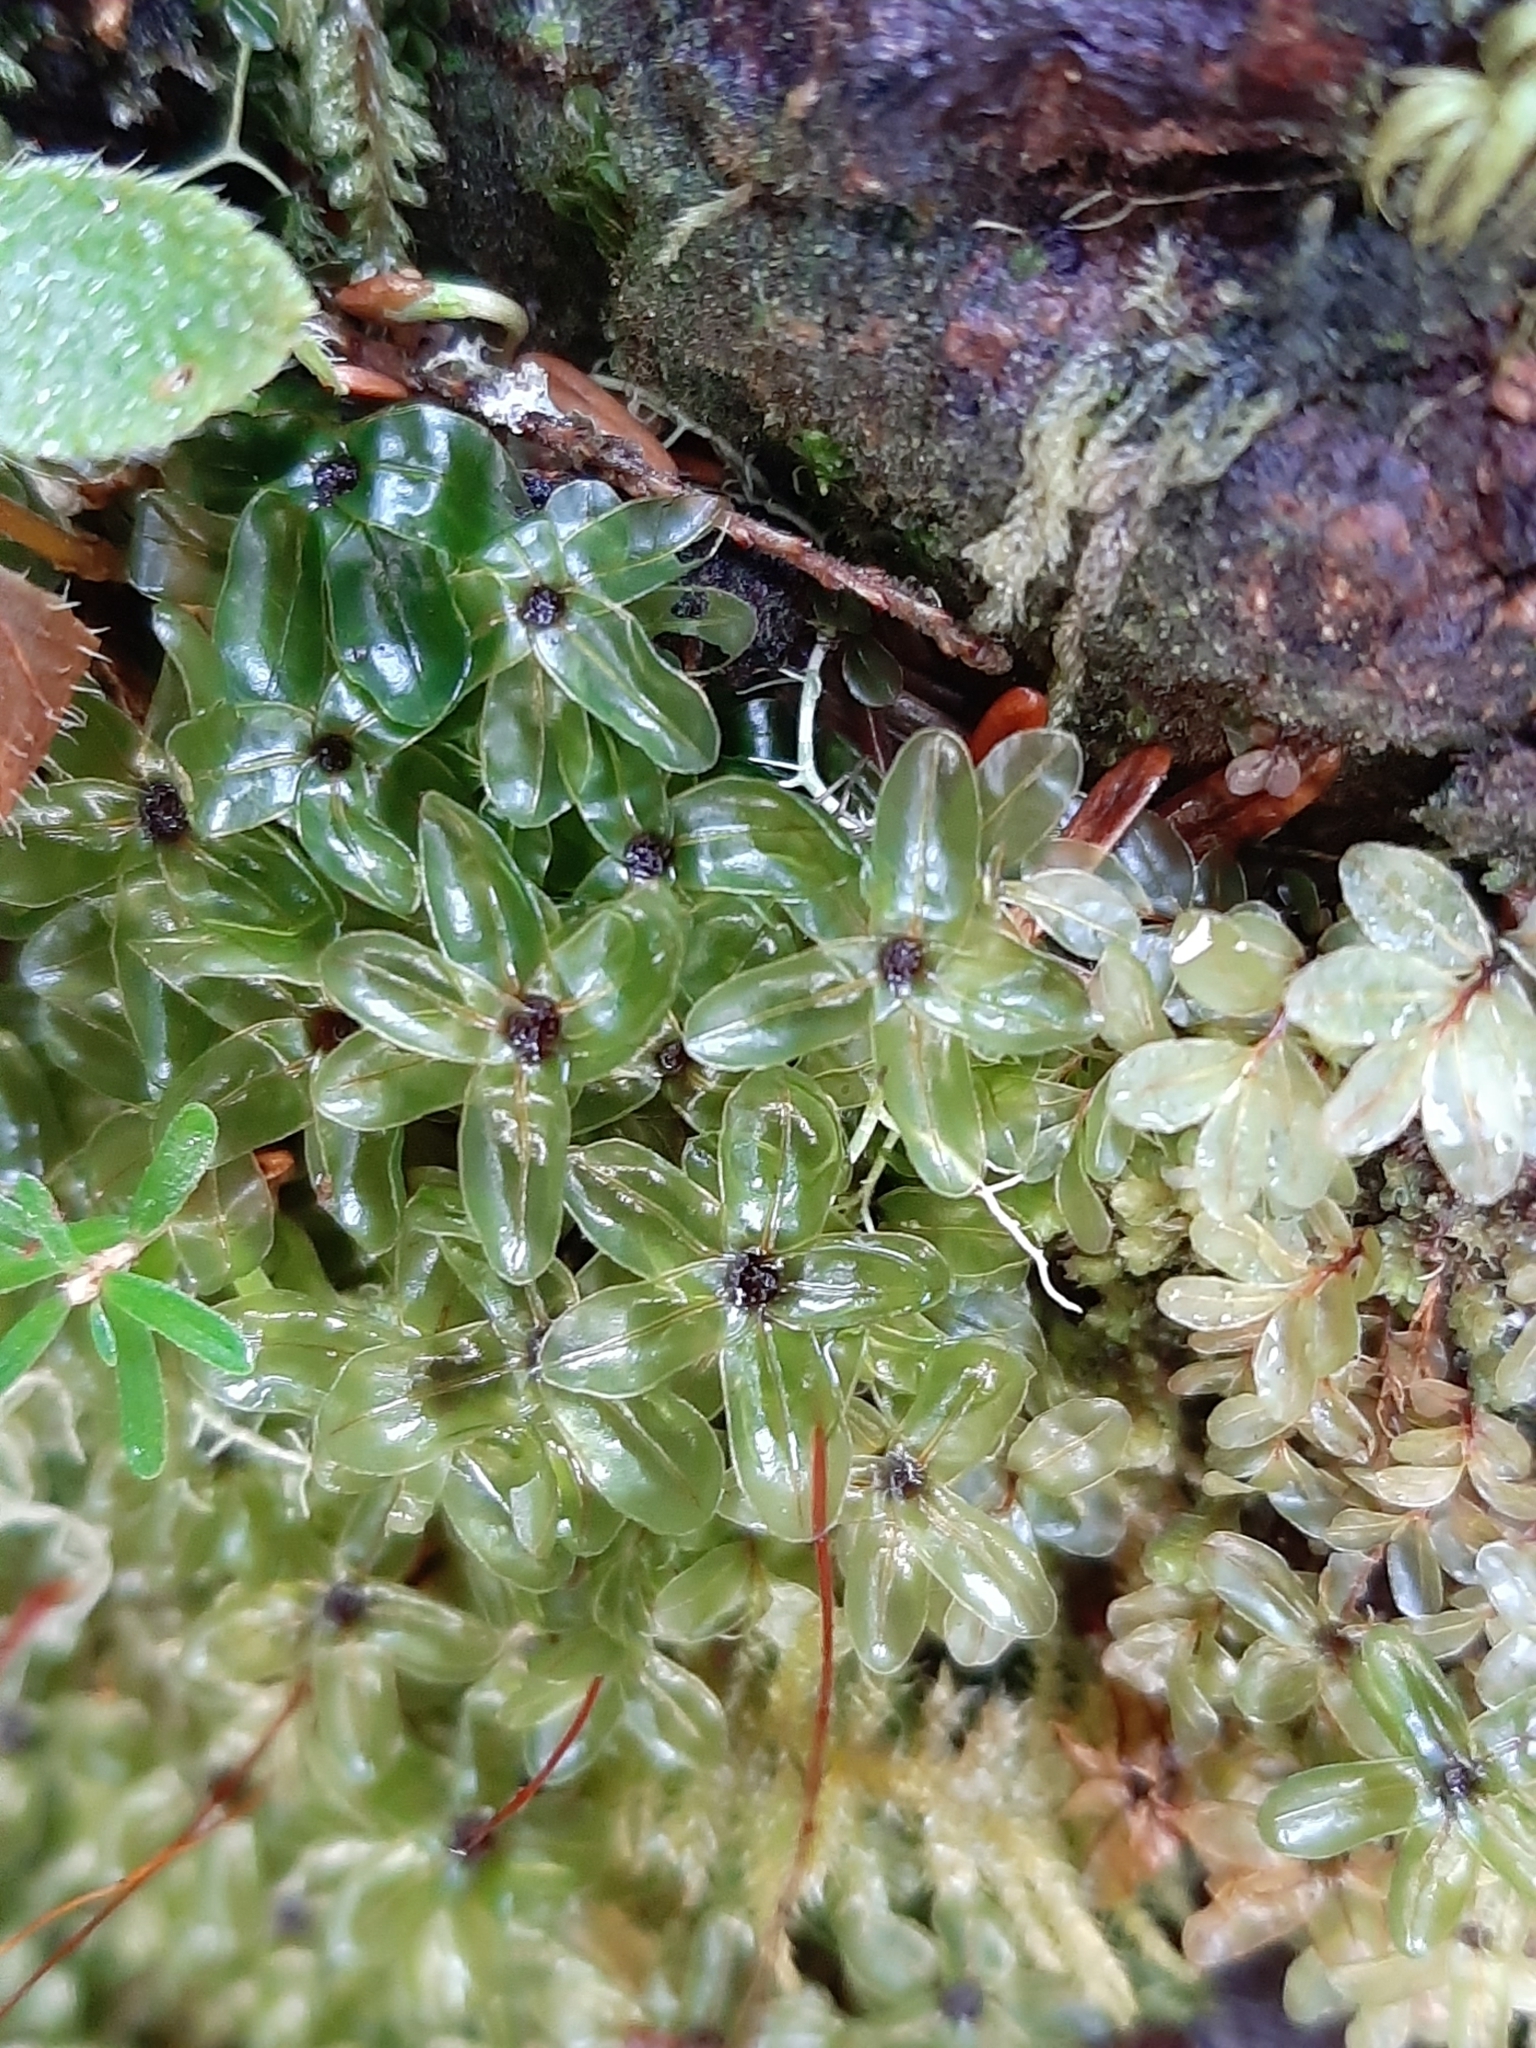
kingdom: Plantae
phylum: Bryophyta
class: Bryopsida
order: Bryales
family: Mniaceae
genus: Rhizomnium
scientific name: Rhizomnium glabrescens
